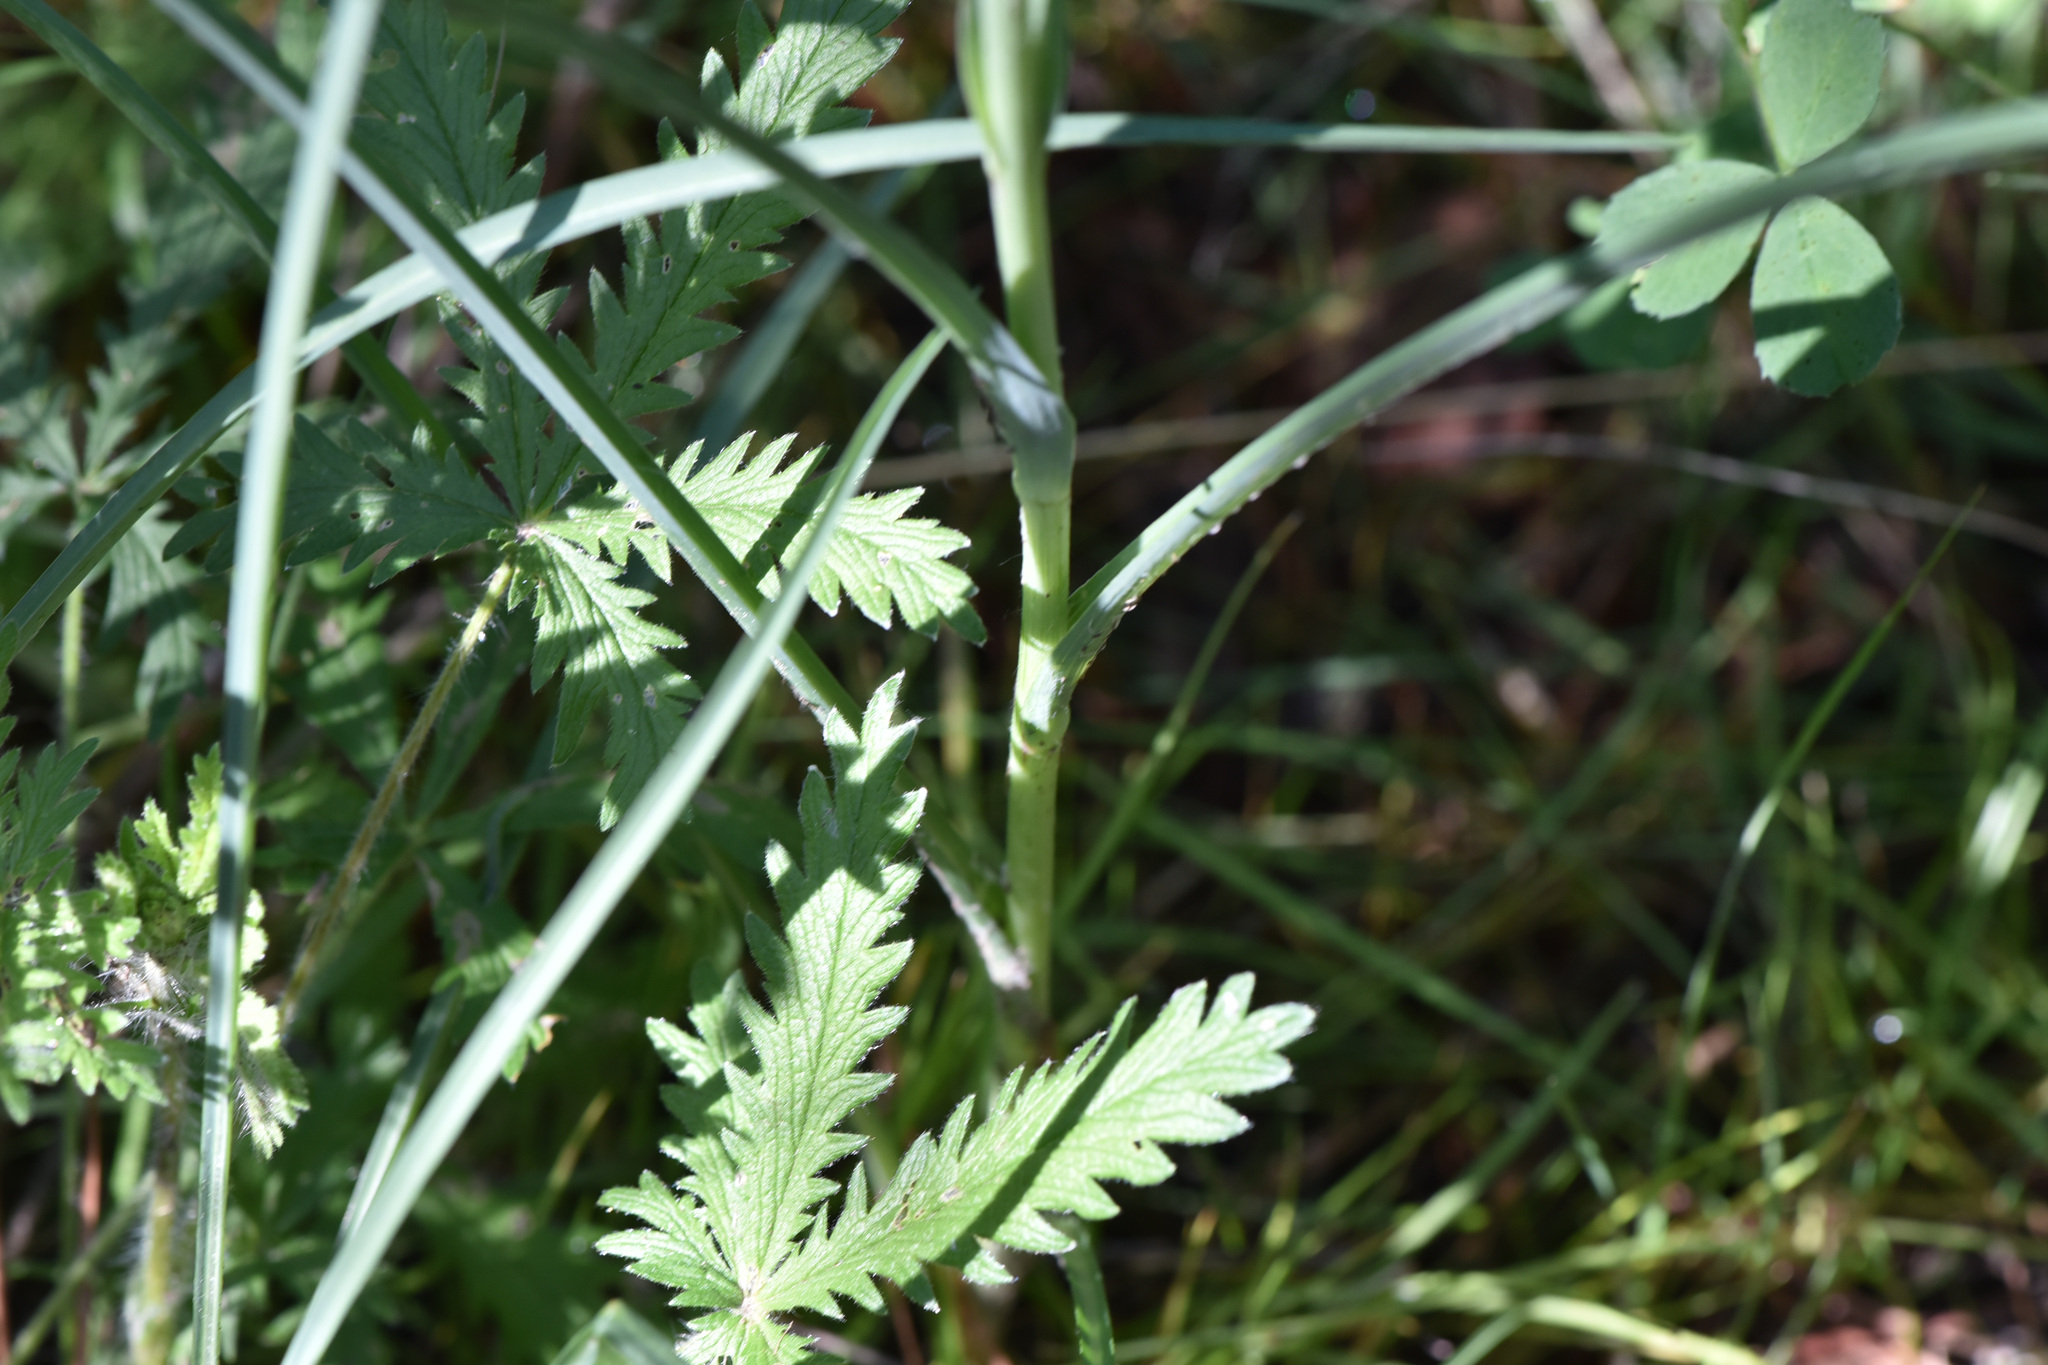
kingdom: Plantae
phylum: Tracheophyta
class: Magnoliopsida
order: Asterales
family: Asteraceae
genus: Tragopogon
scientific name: Tragopogon dubius
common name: Yellow salsify
